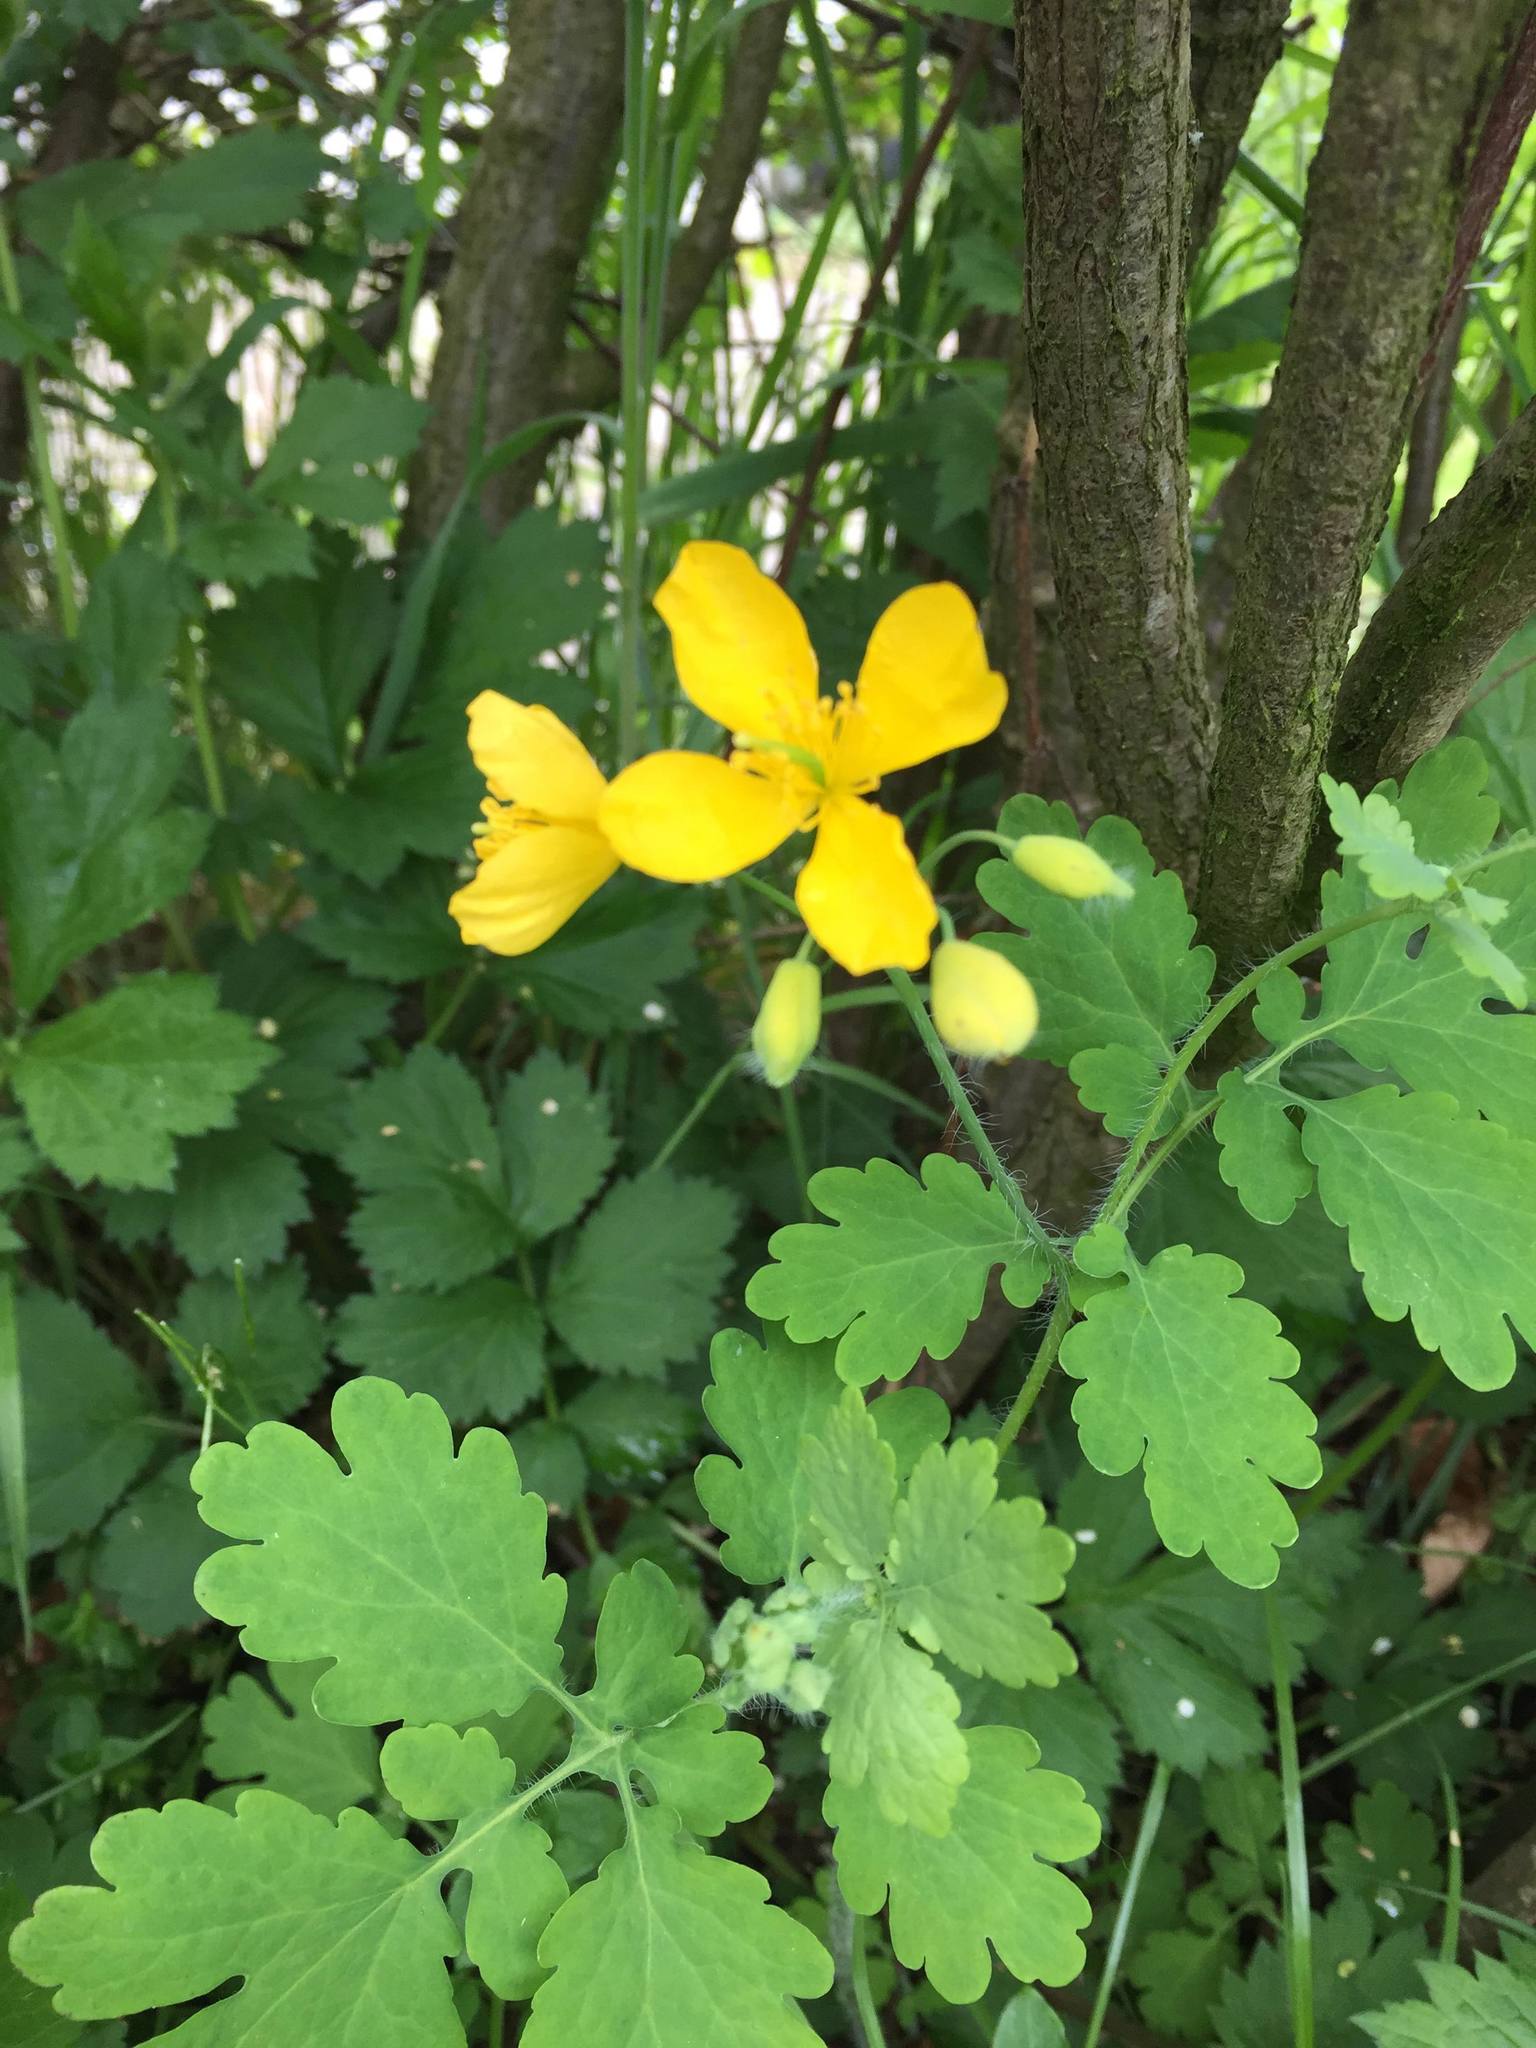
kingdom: Plantae
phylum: Tracheophyta
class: Magnoliopsida
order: Ranunculales
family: Papaveraceae
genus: Chelidonium
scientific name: Chelidonium majus
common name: Greater celandine
